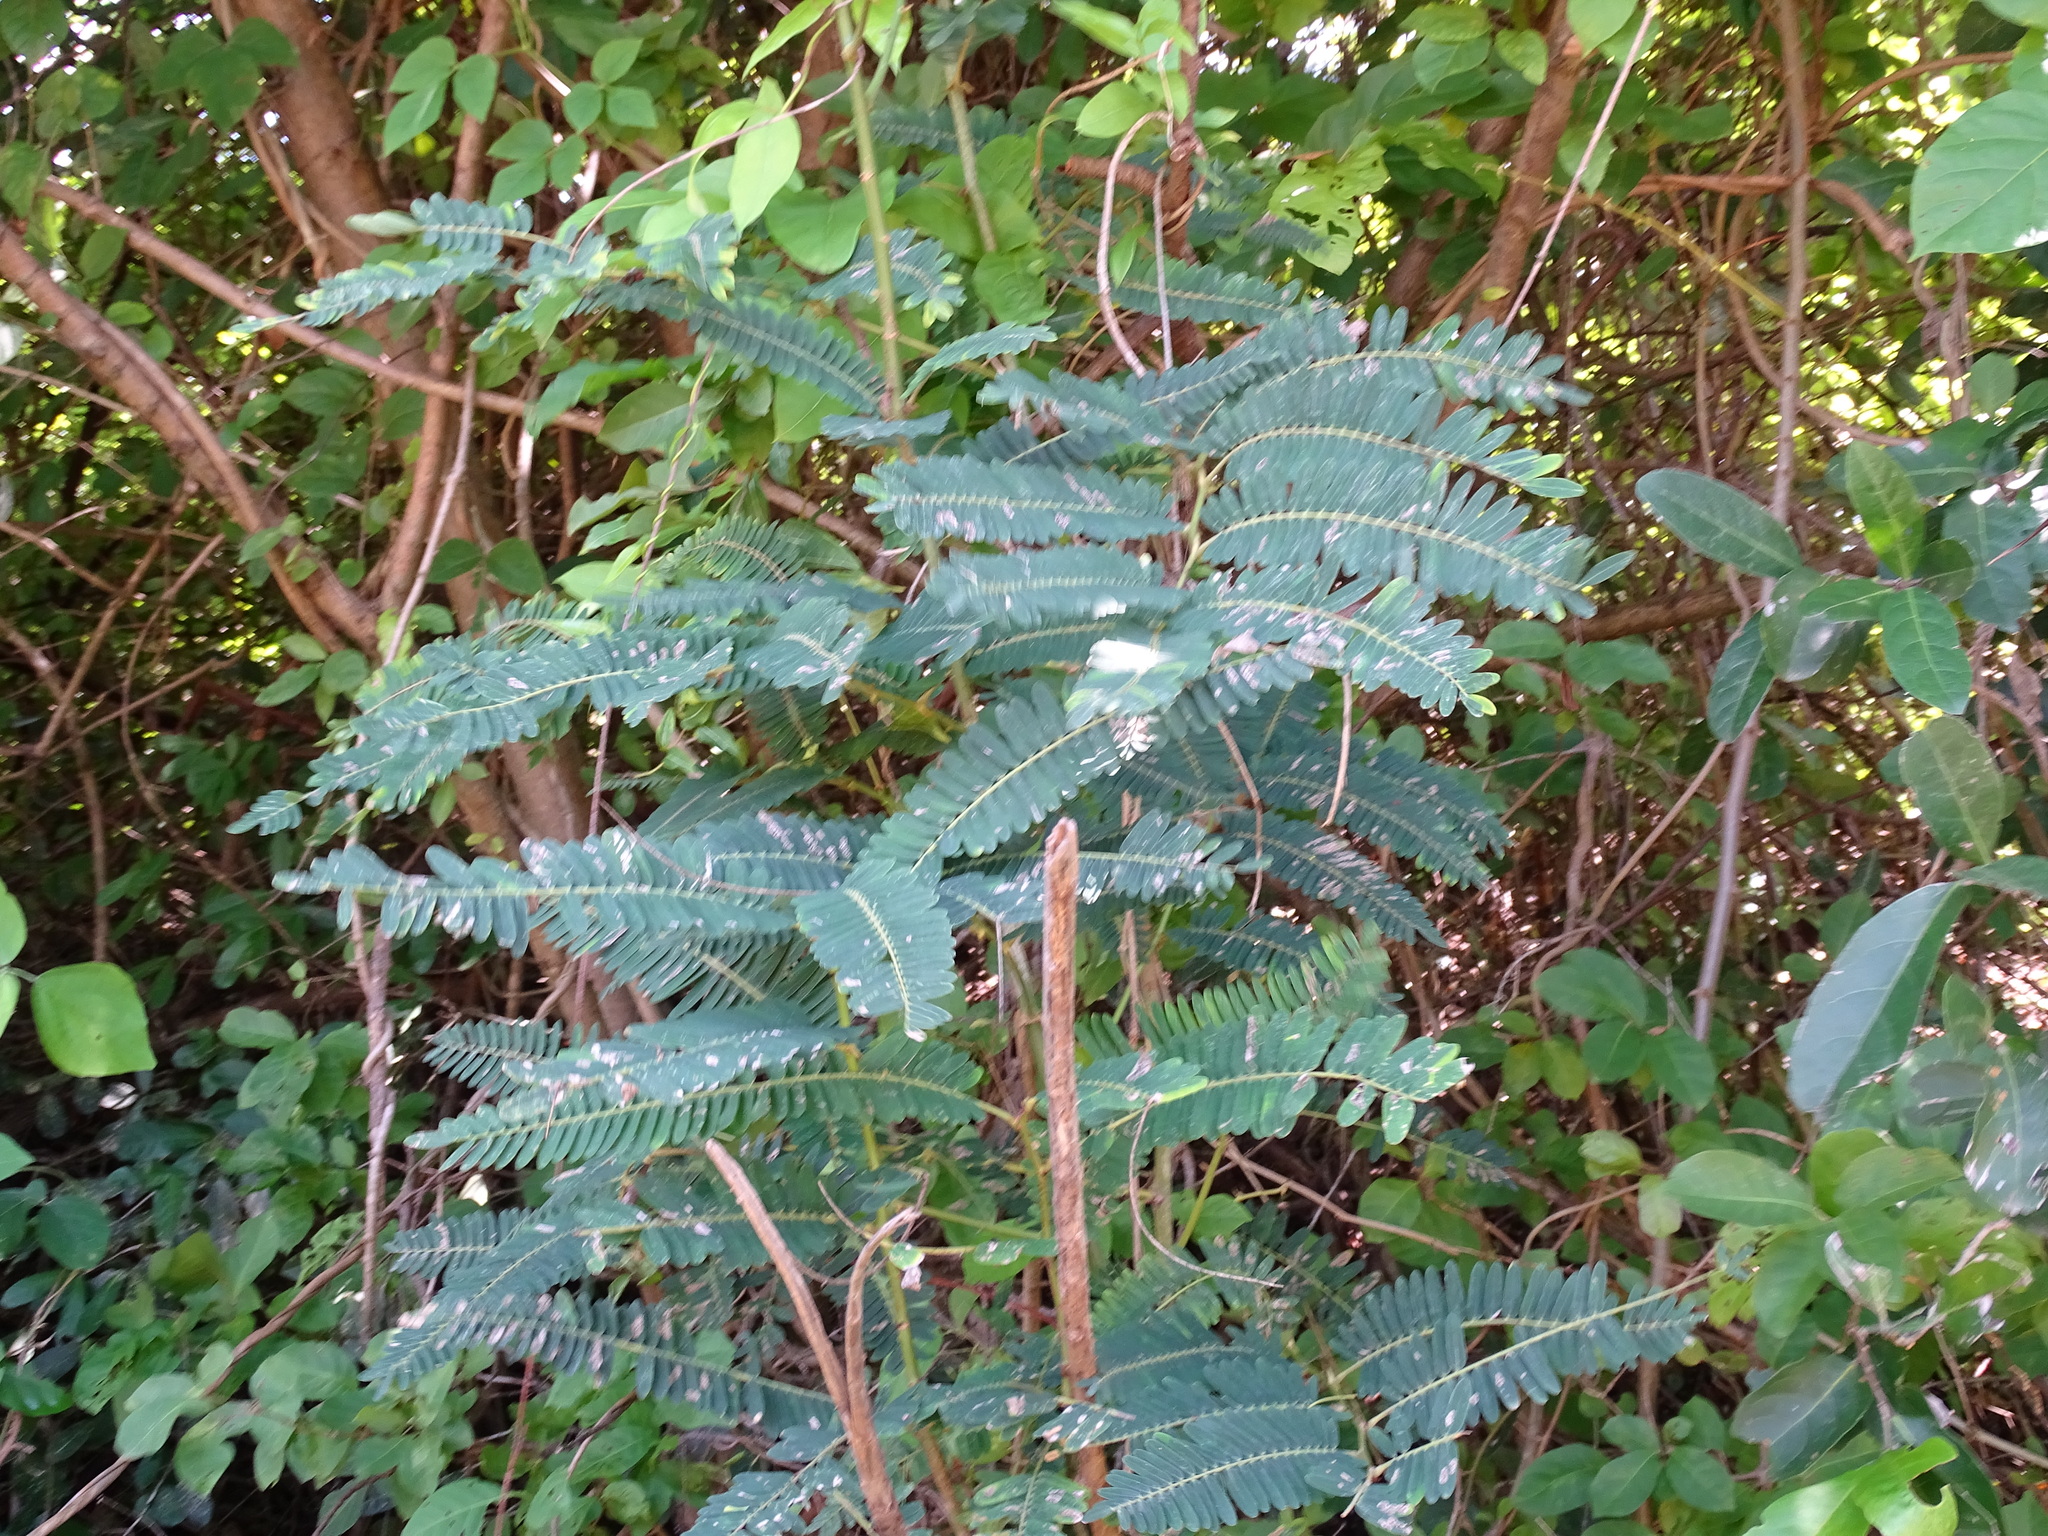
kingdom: Plantae
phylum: Tracheophyta
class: Magnoliopsida
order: Fabales
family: Fabaceae
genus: Machaerium
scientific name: Machaerium isadelphum
